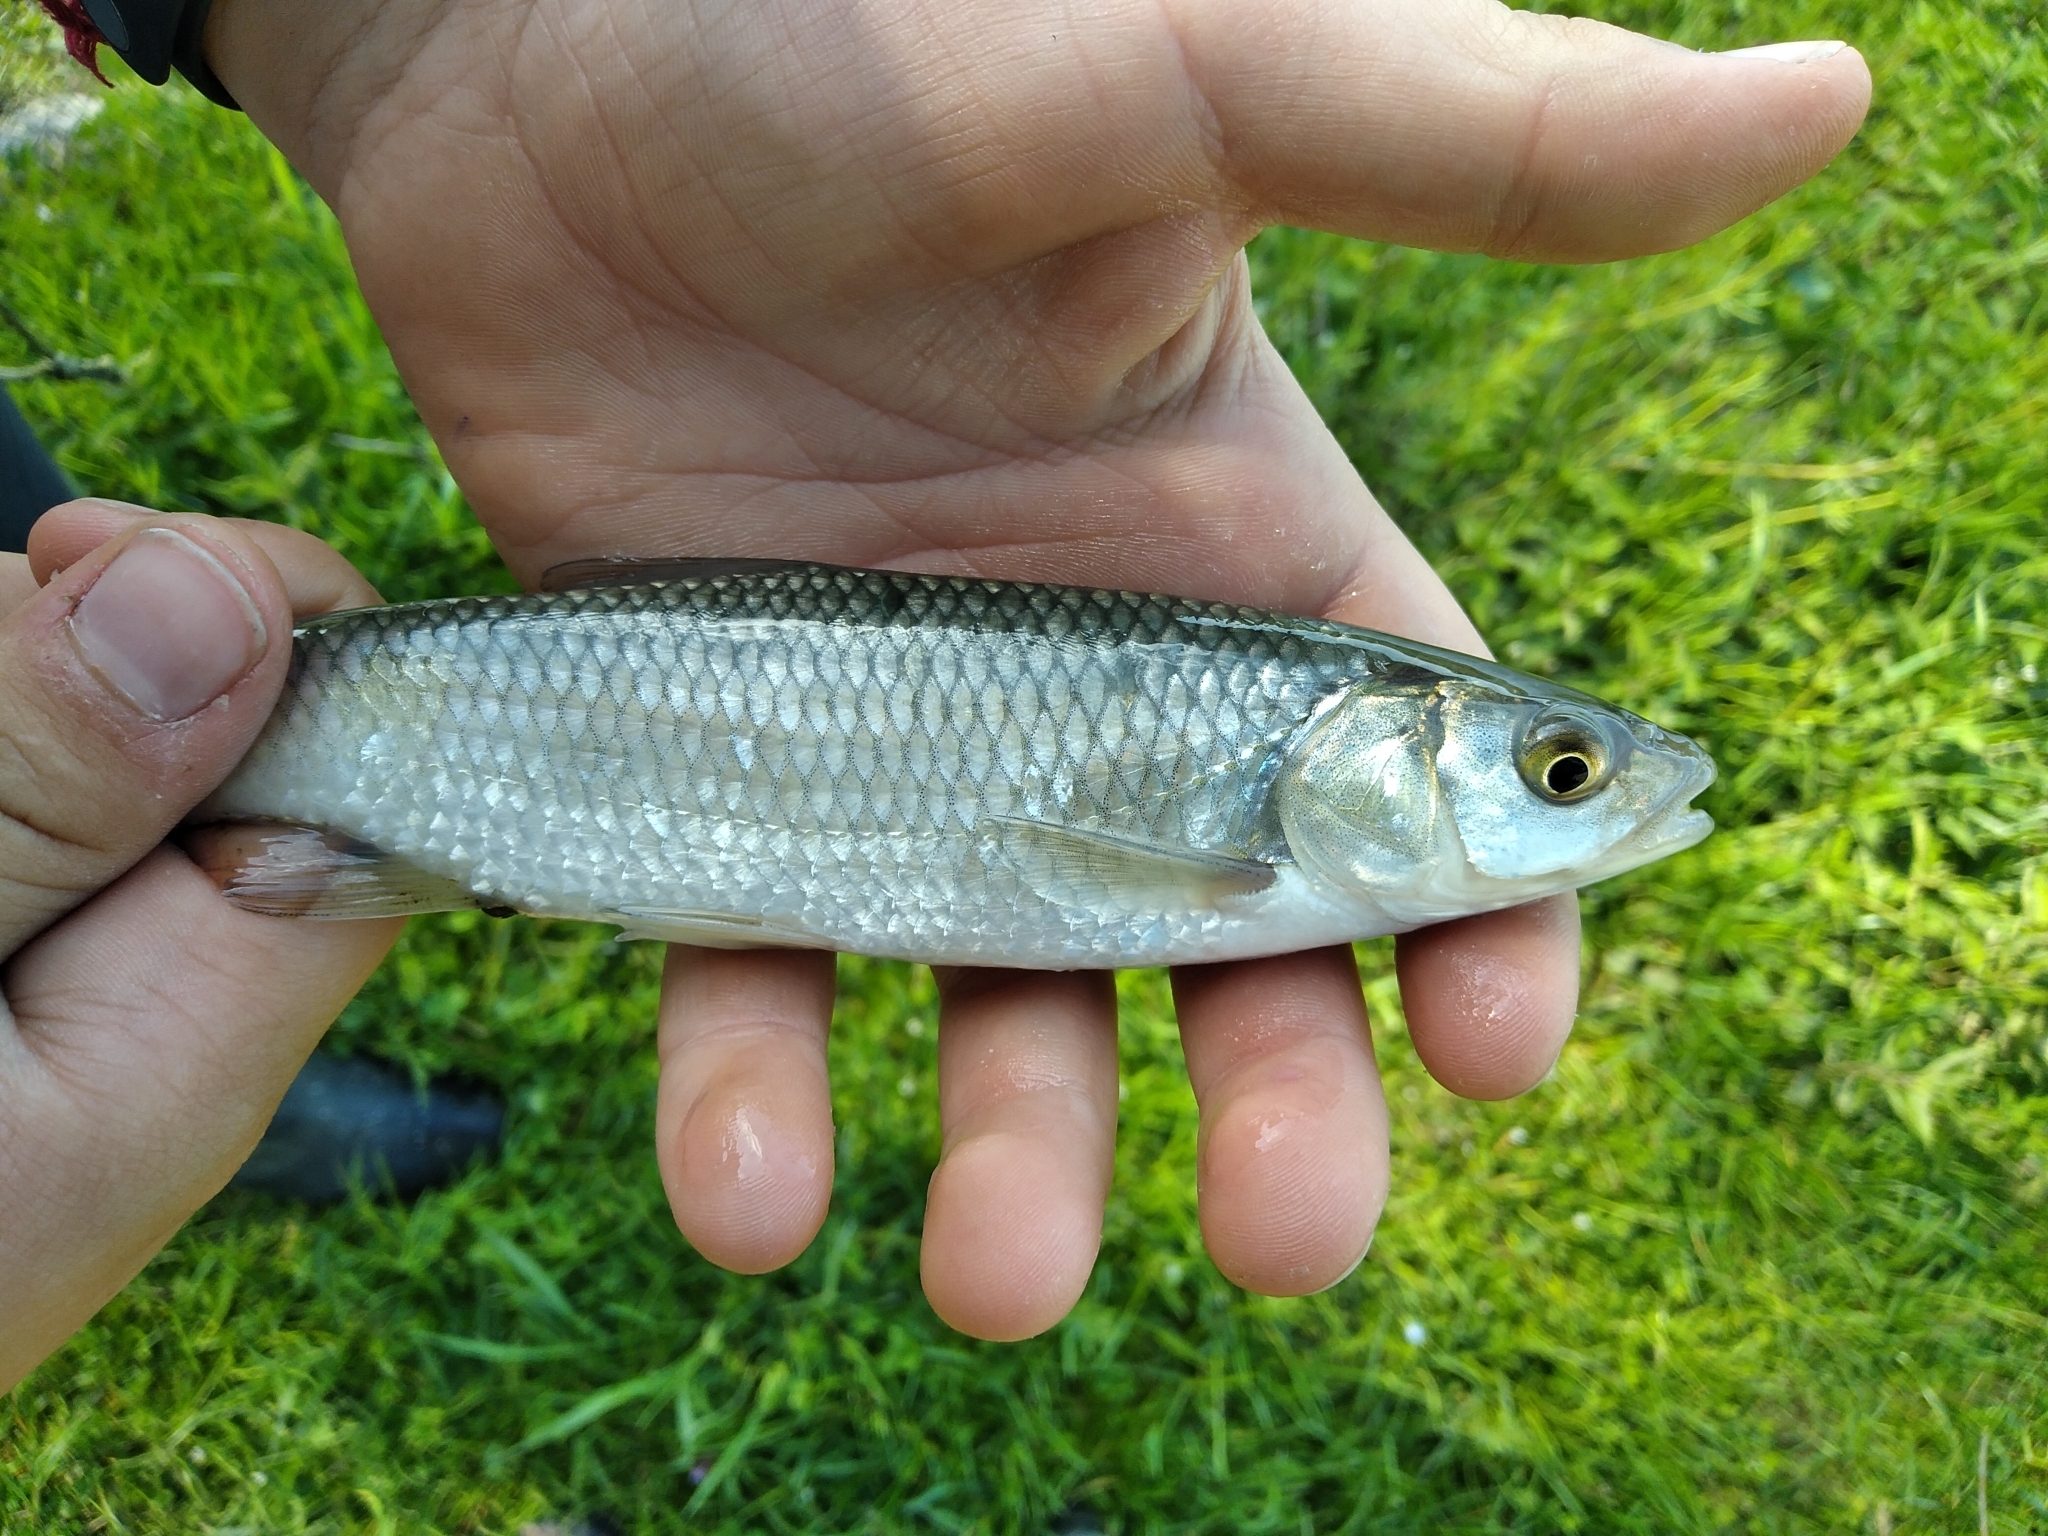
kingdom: Animalia
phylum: Chordata
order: Cypriniformes
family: Cyprinidae
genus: Squalius
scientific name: Squalius squalus
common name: Italian chub
